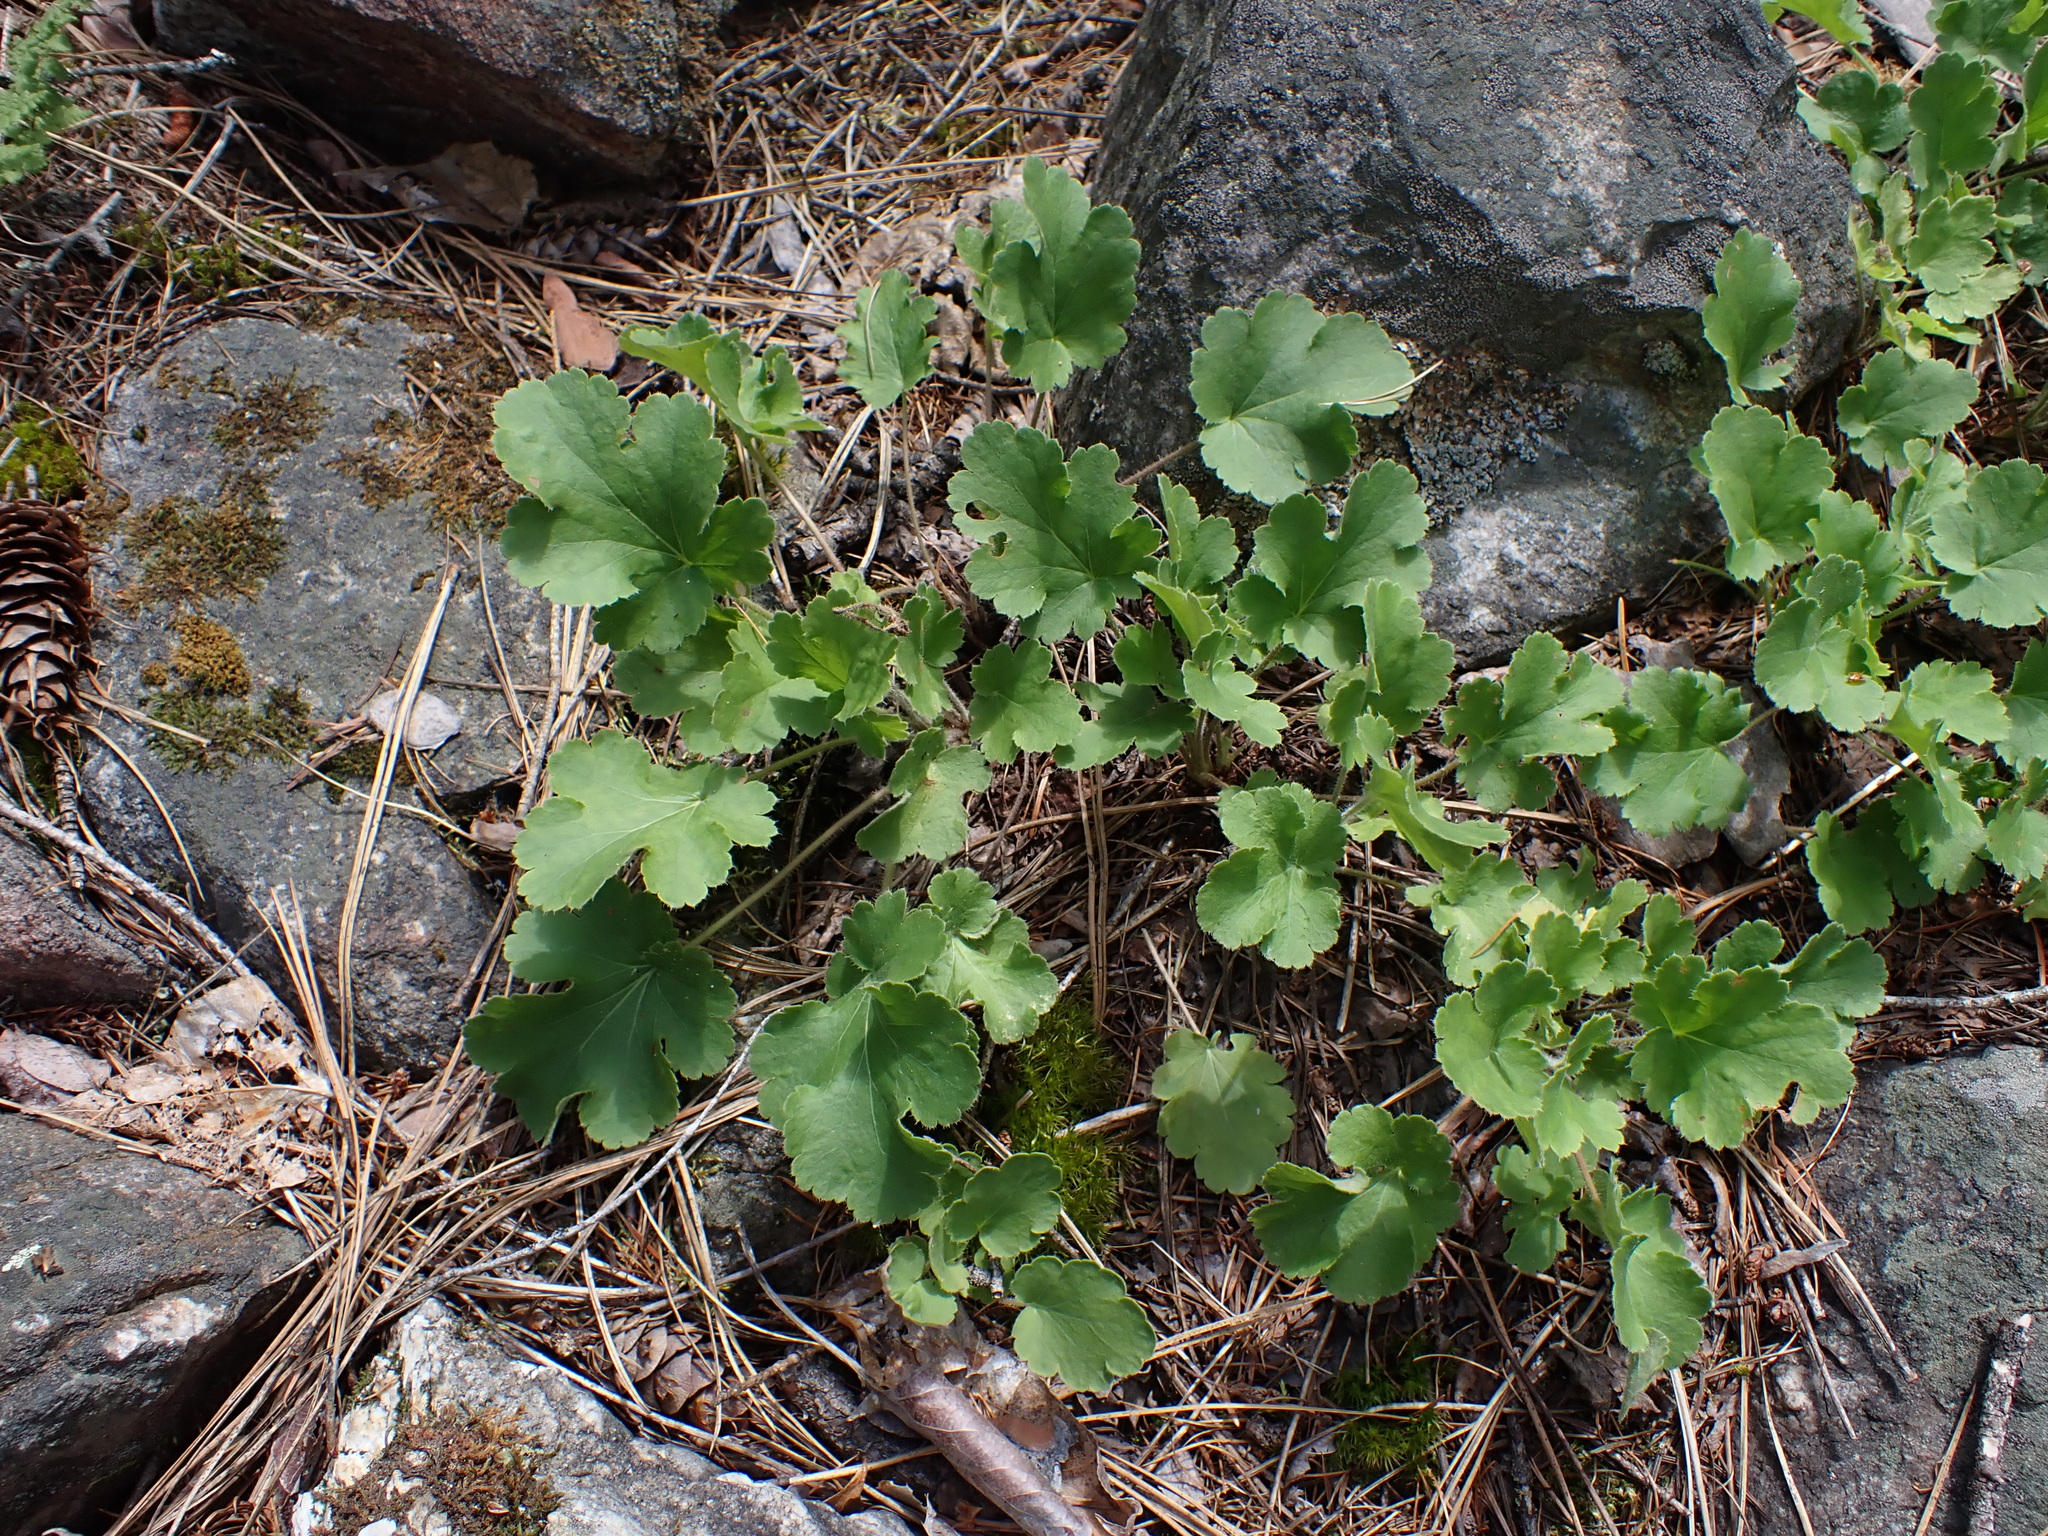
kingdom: Plantae
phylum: Tracheophyta
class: Magnoliopsida
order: Saxifragales
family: Saxifragaceae
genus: Heuchera
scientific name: Heuchera cylindrica
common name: Mat alumroot
